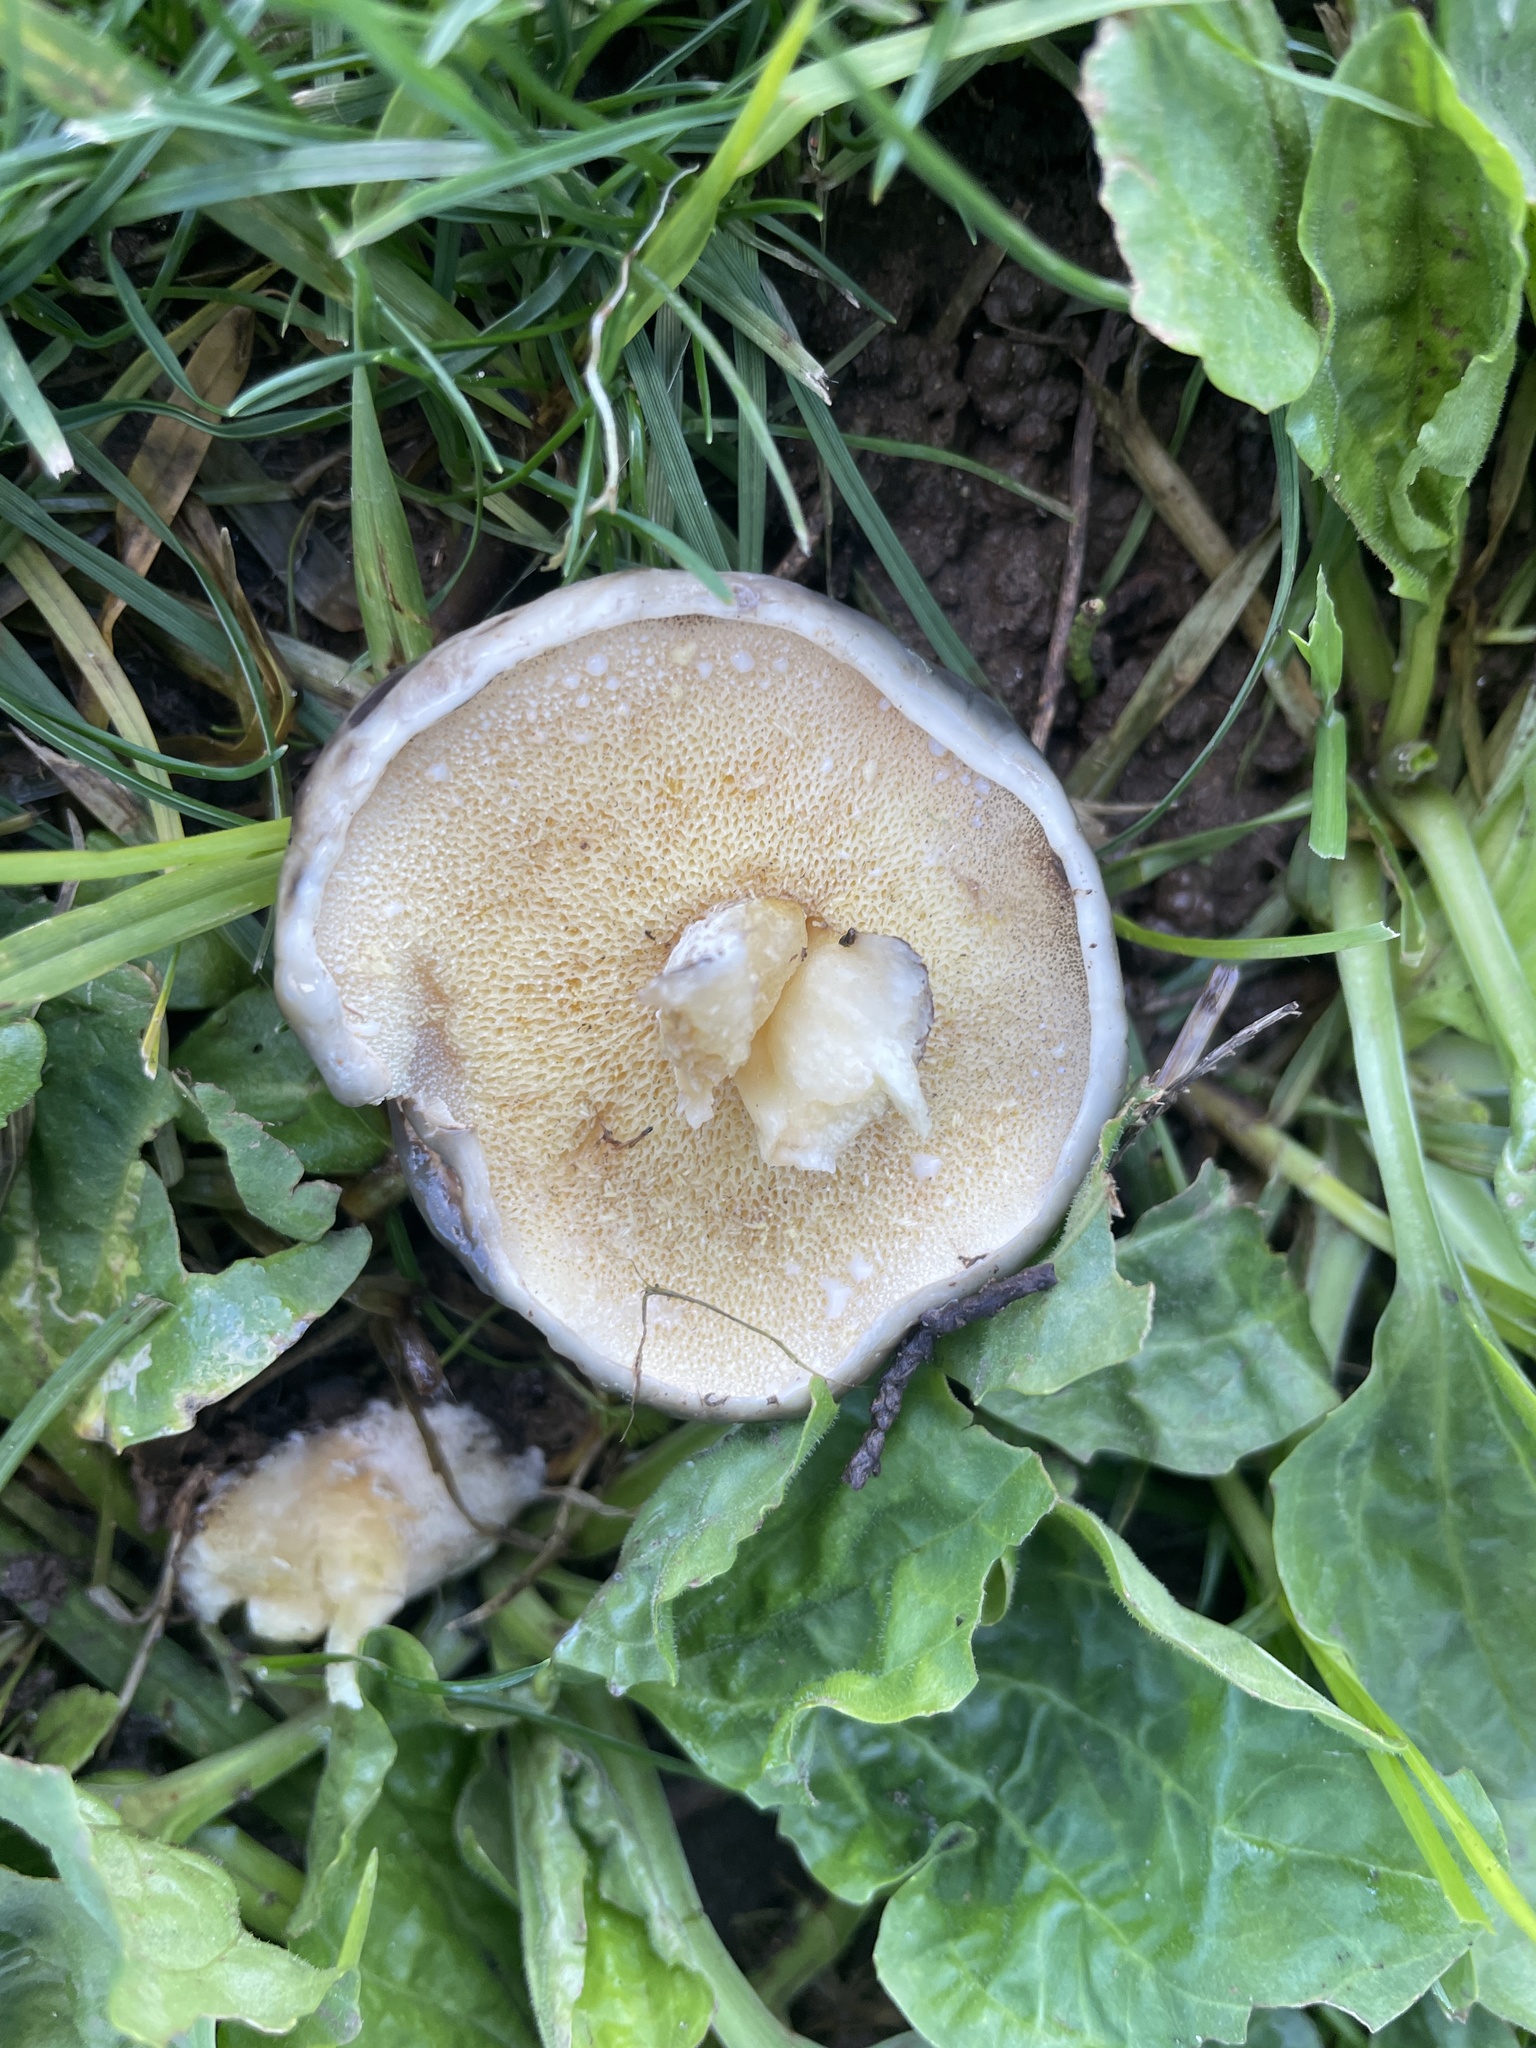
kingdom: Fungi
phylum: Basidiomycota
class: Agaricomycetes
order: Boletales
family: Suillaceae
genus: Suillus
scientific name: Suillus pungens
